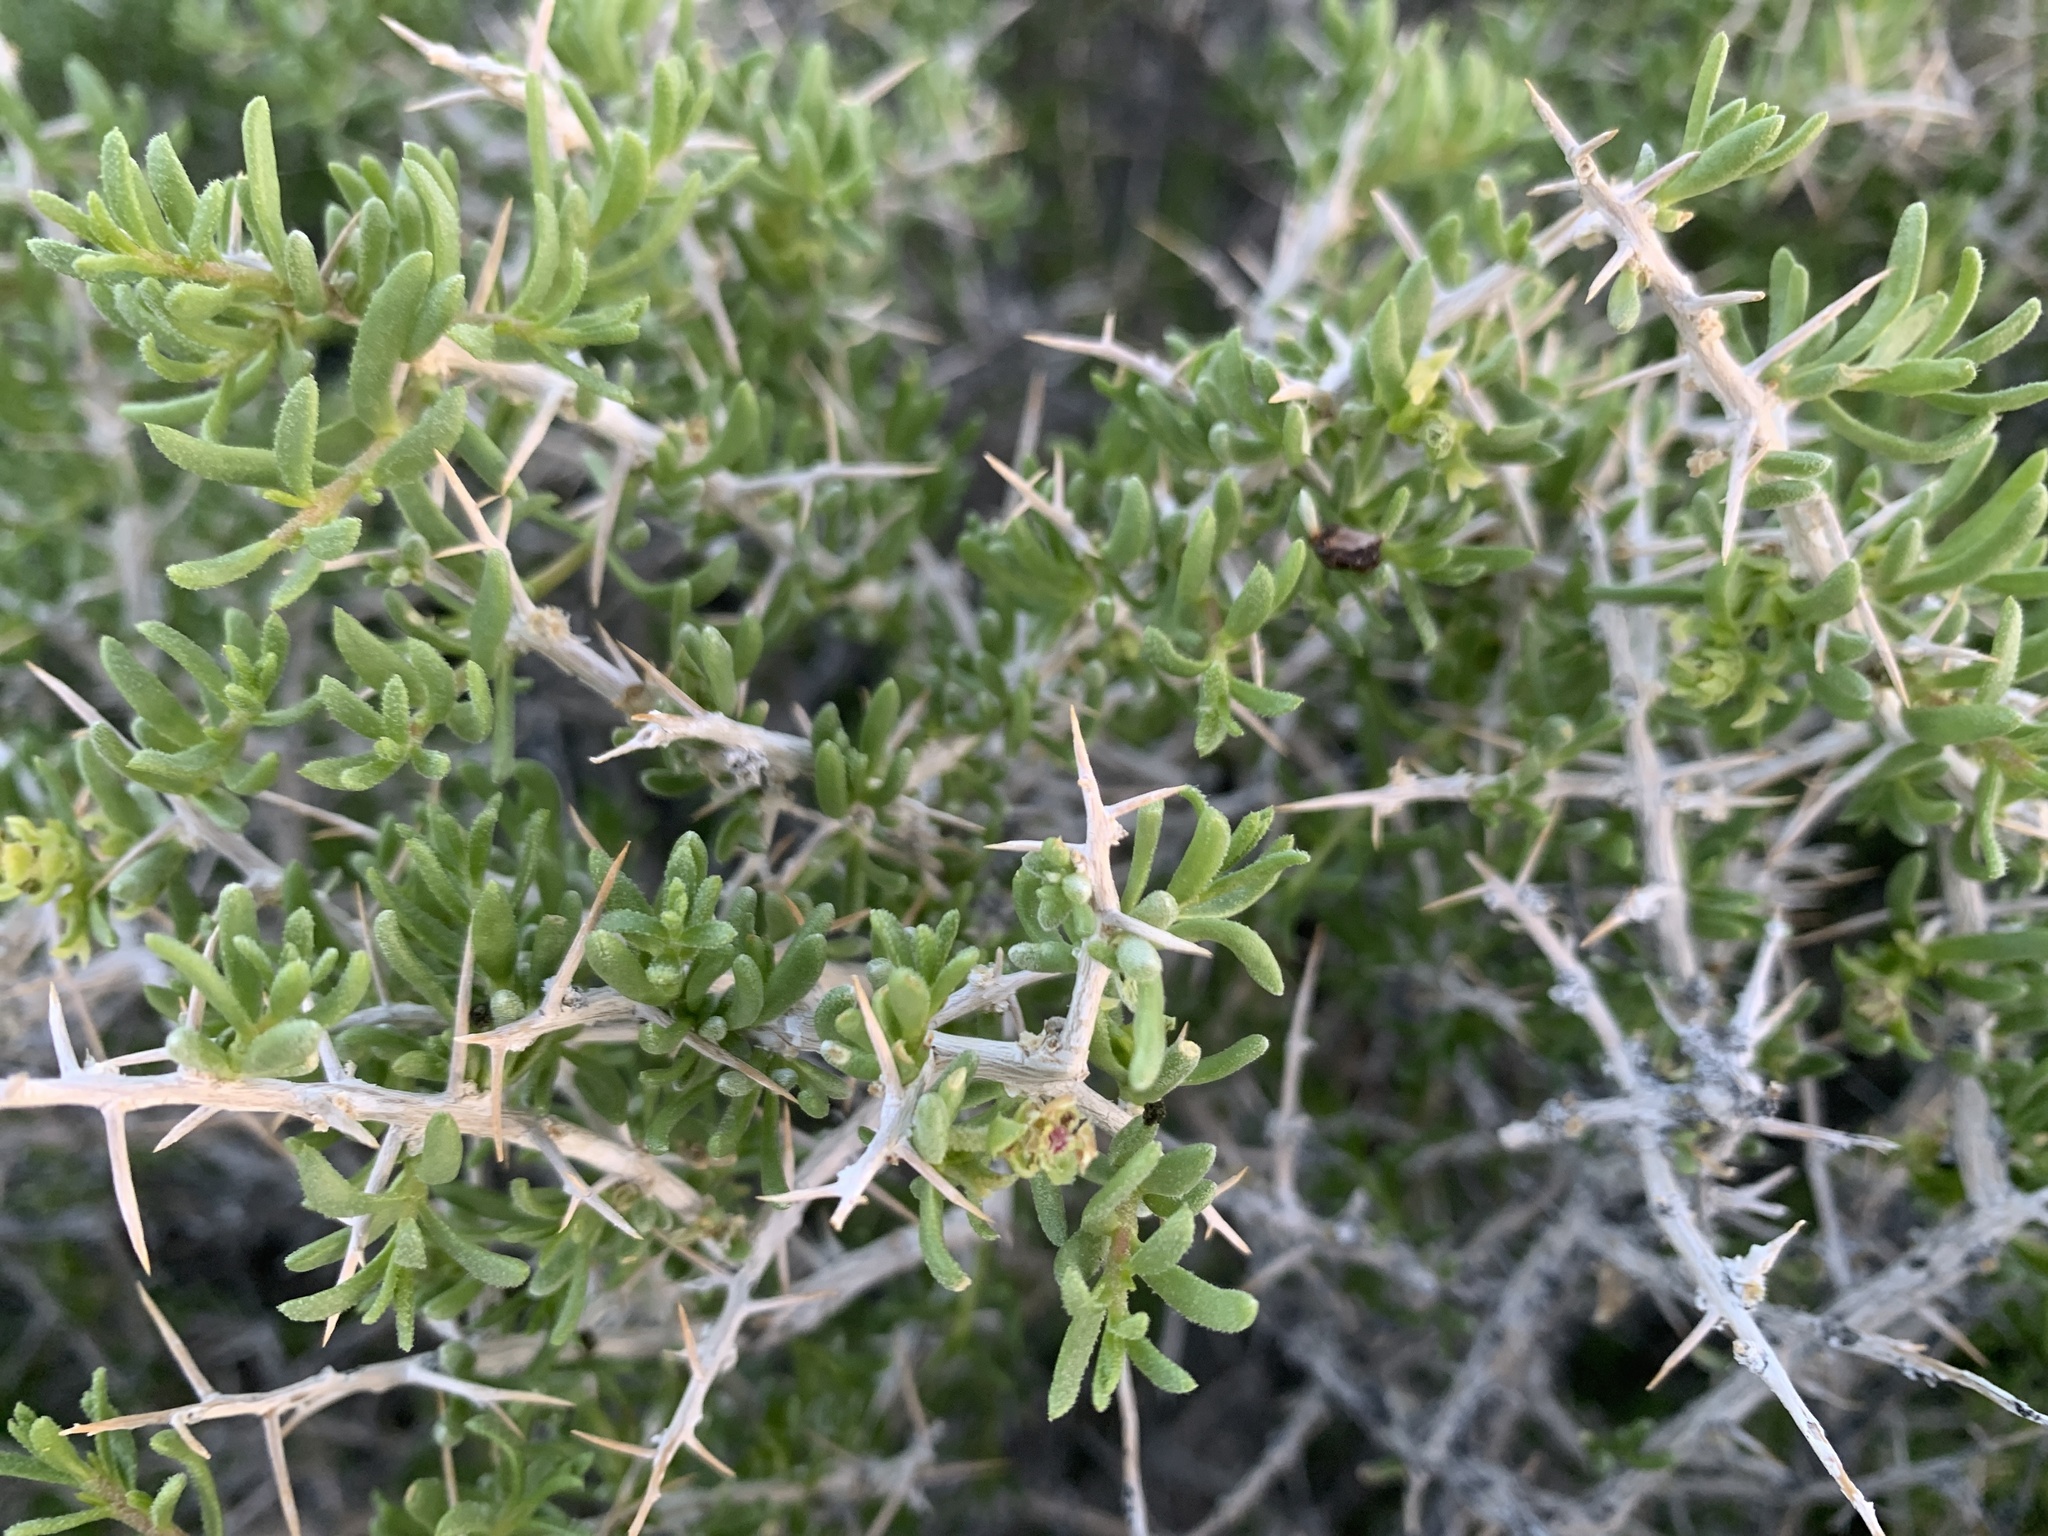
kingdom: Plantae
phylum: Tracheophyta
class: Magnoliopsida
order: Caryophyllales
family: Sarcobataceae
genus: Sarcobatus
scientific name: Sarcobatus baileyi
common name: Bailey greasewood
